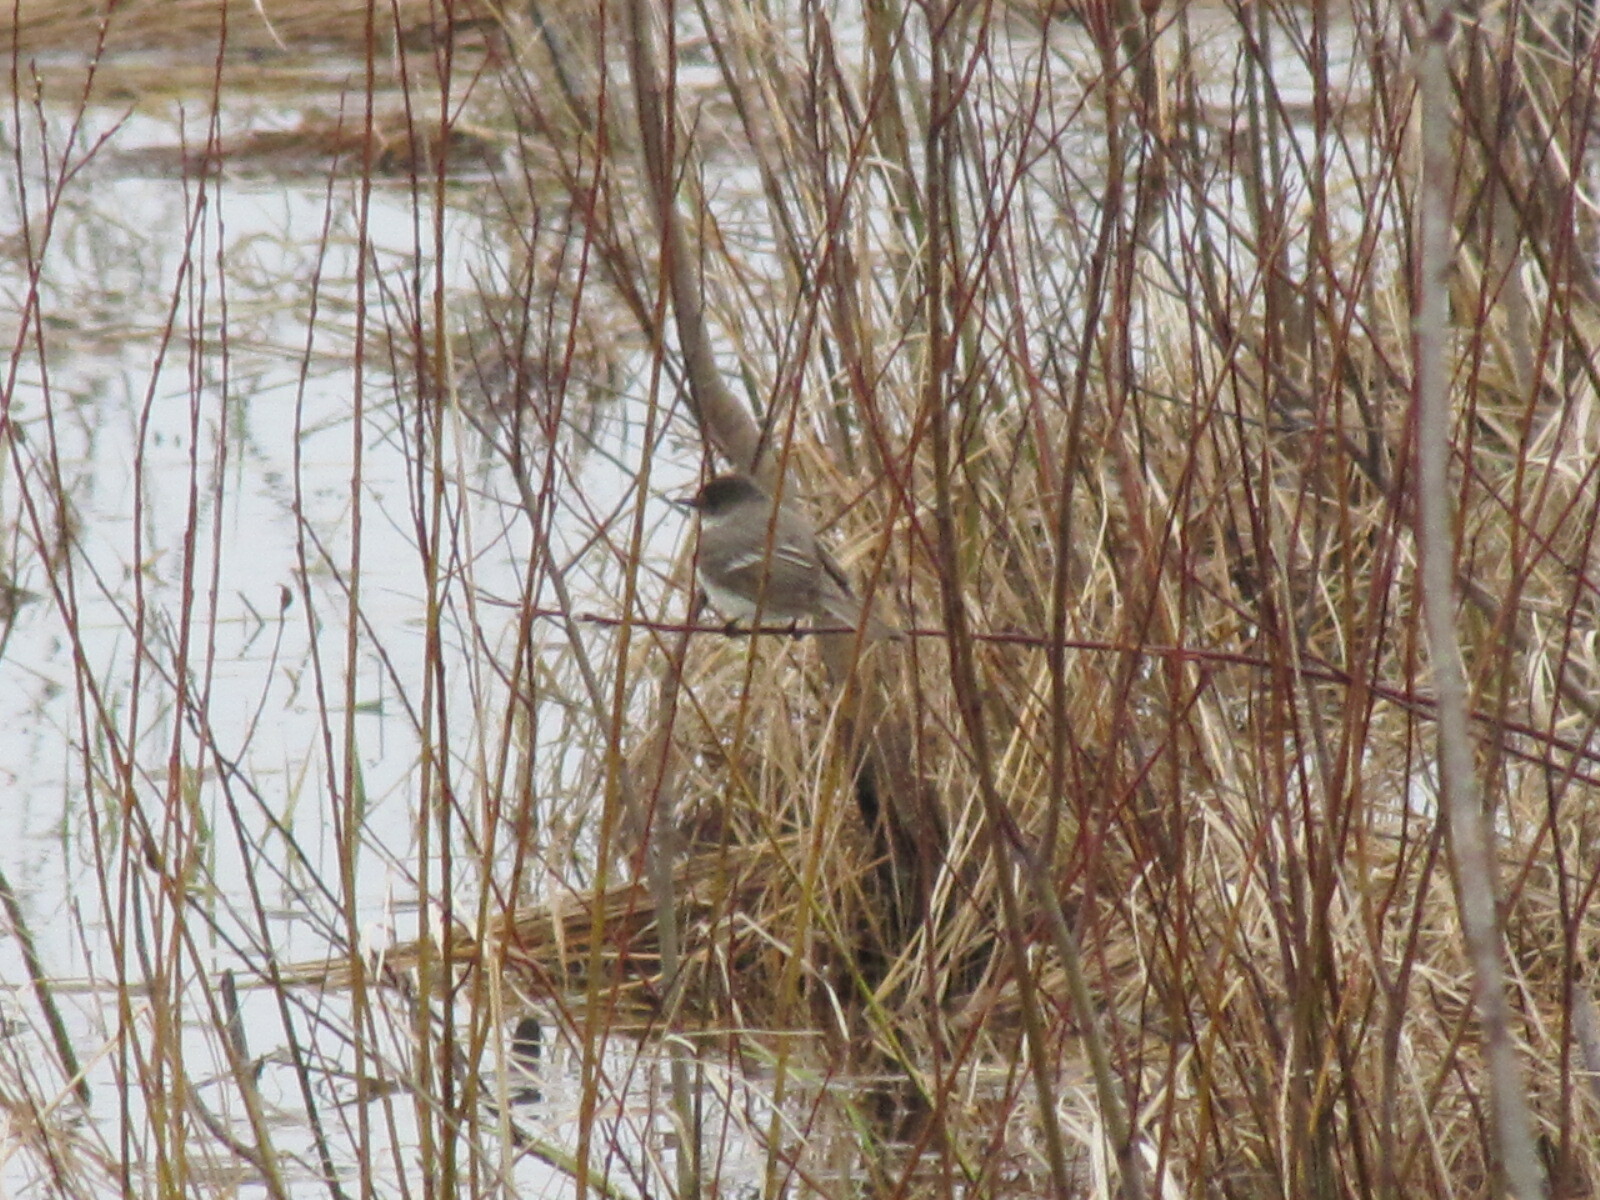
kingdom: Animalia
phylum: Chordata
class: Aves
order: Passeriformes
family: Tyrannidae
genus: Sayornis
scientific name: Sayornis phoebe
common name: Eastern phoebe
